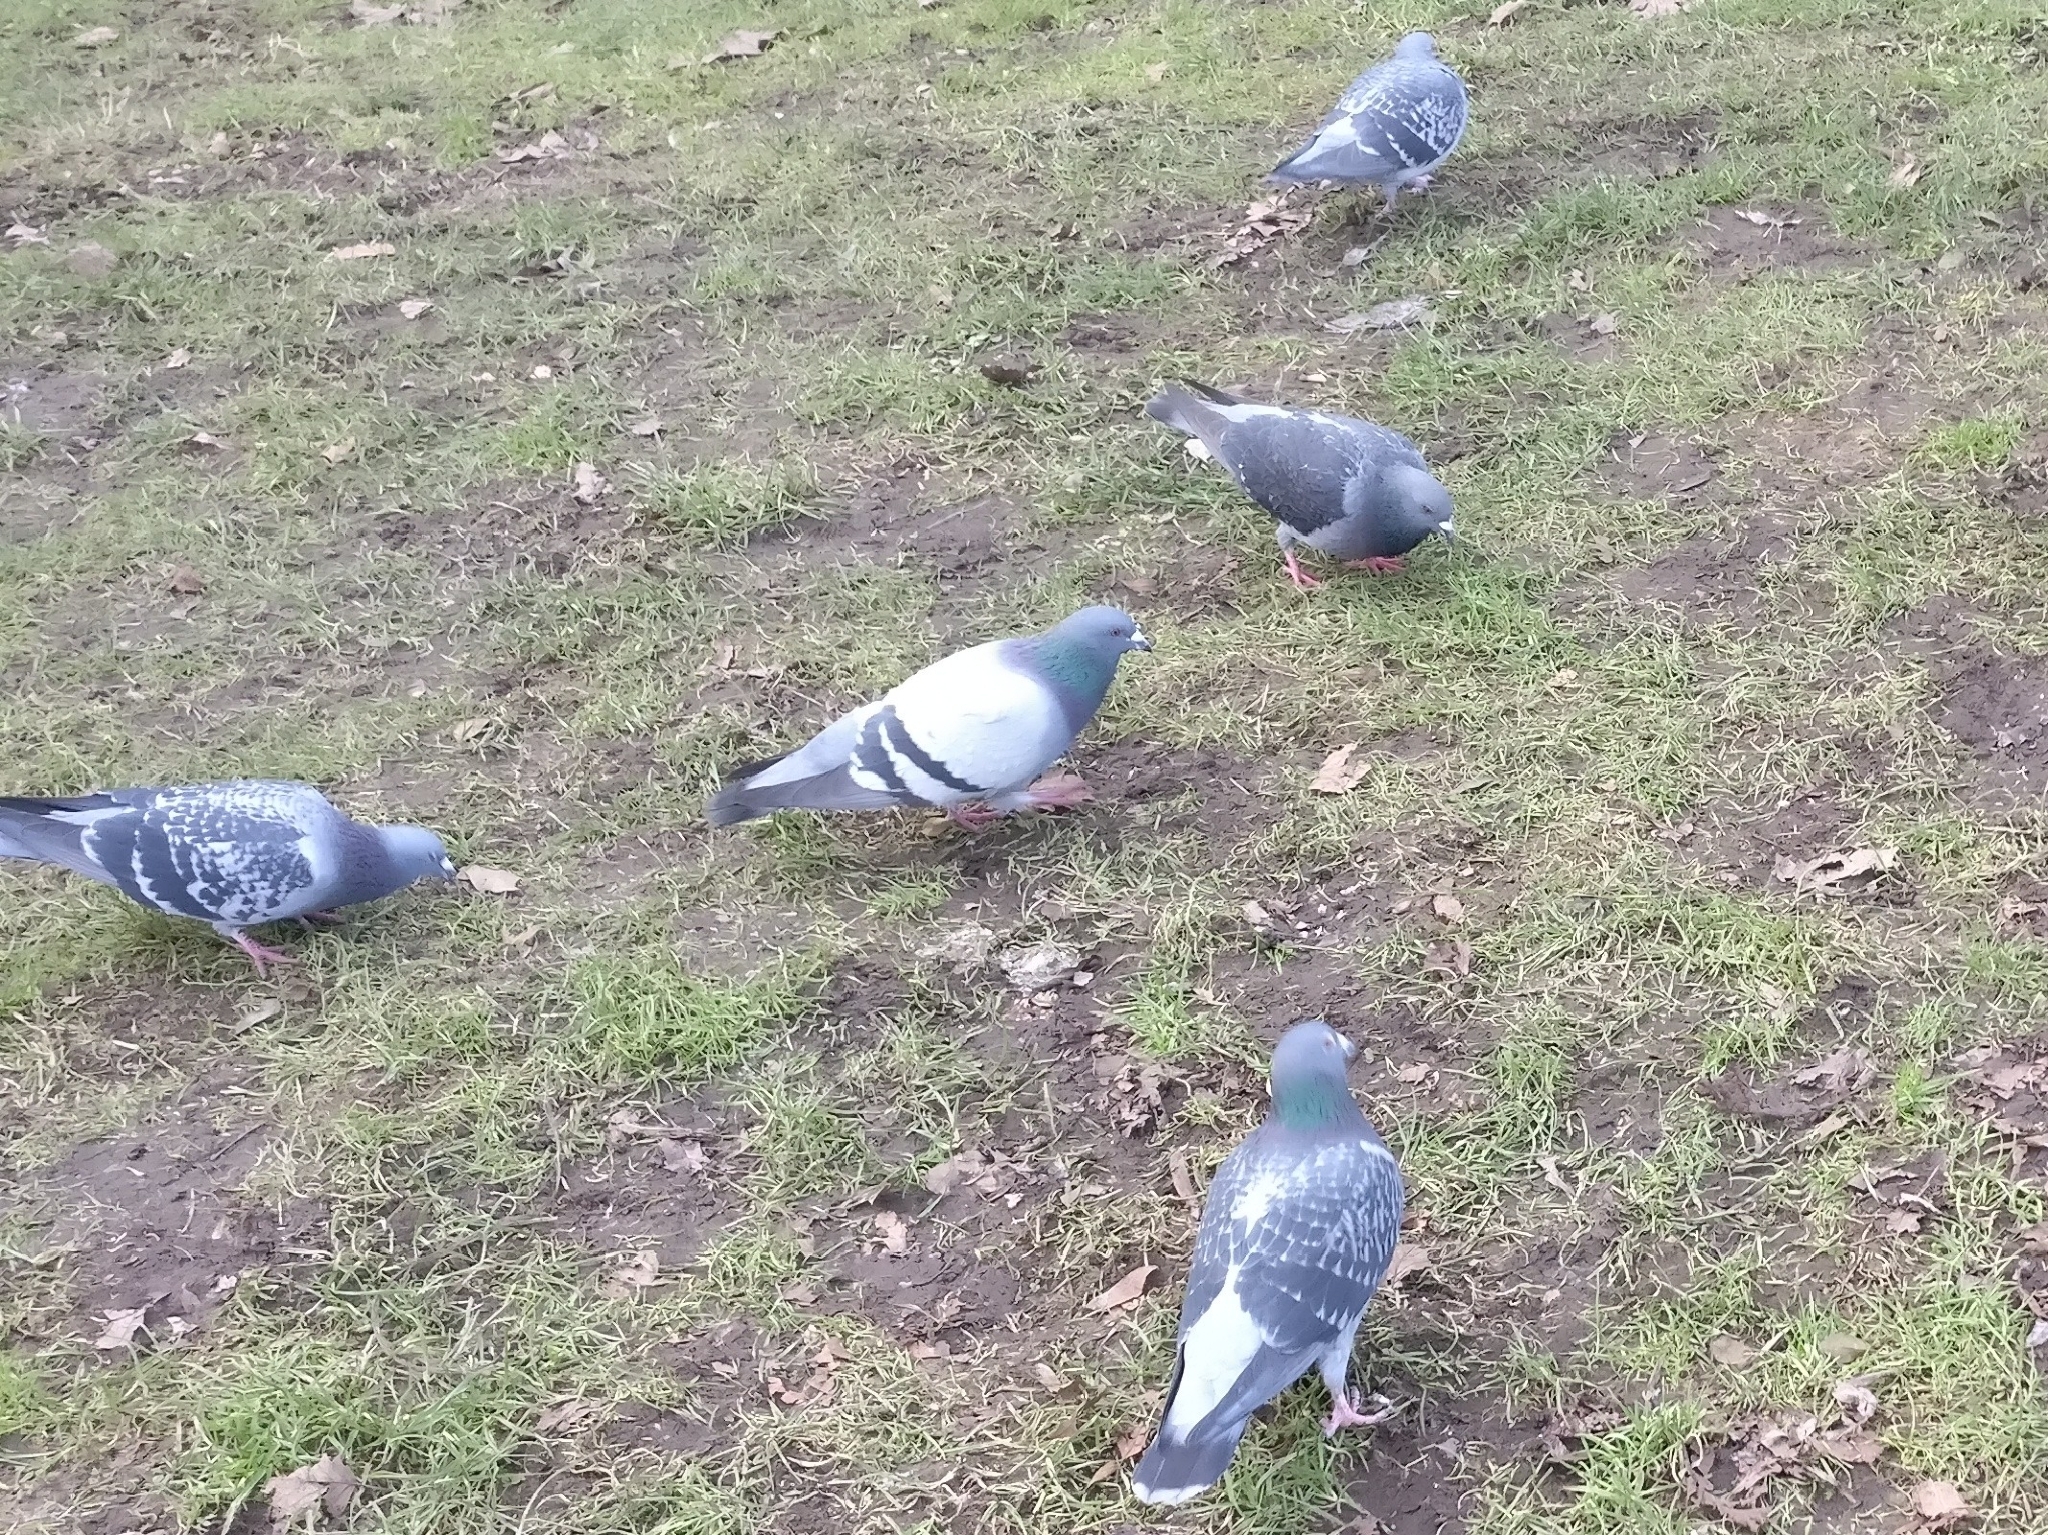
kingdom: Animalia
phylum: Chordata
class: Aves
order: Columbiformes
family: Columbidae
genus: Columba
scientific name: Columba livia
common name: Rock pigeon
